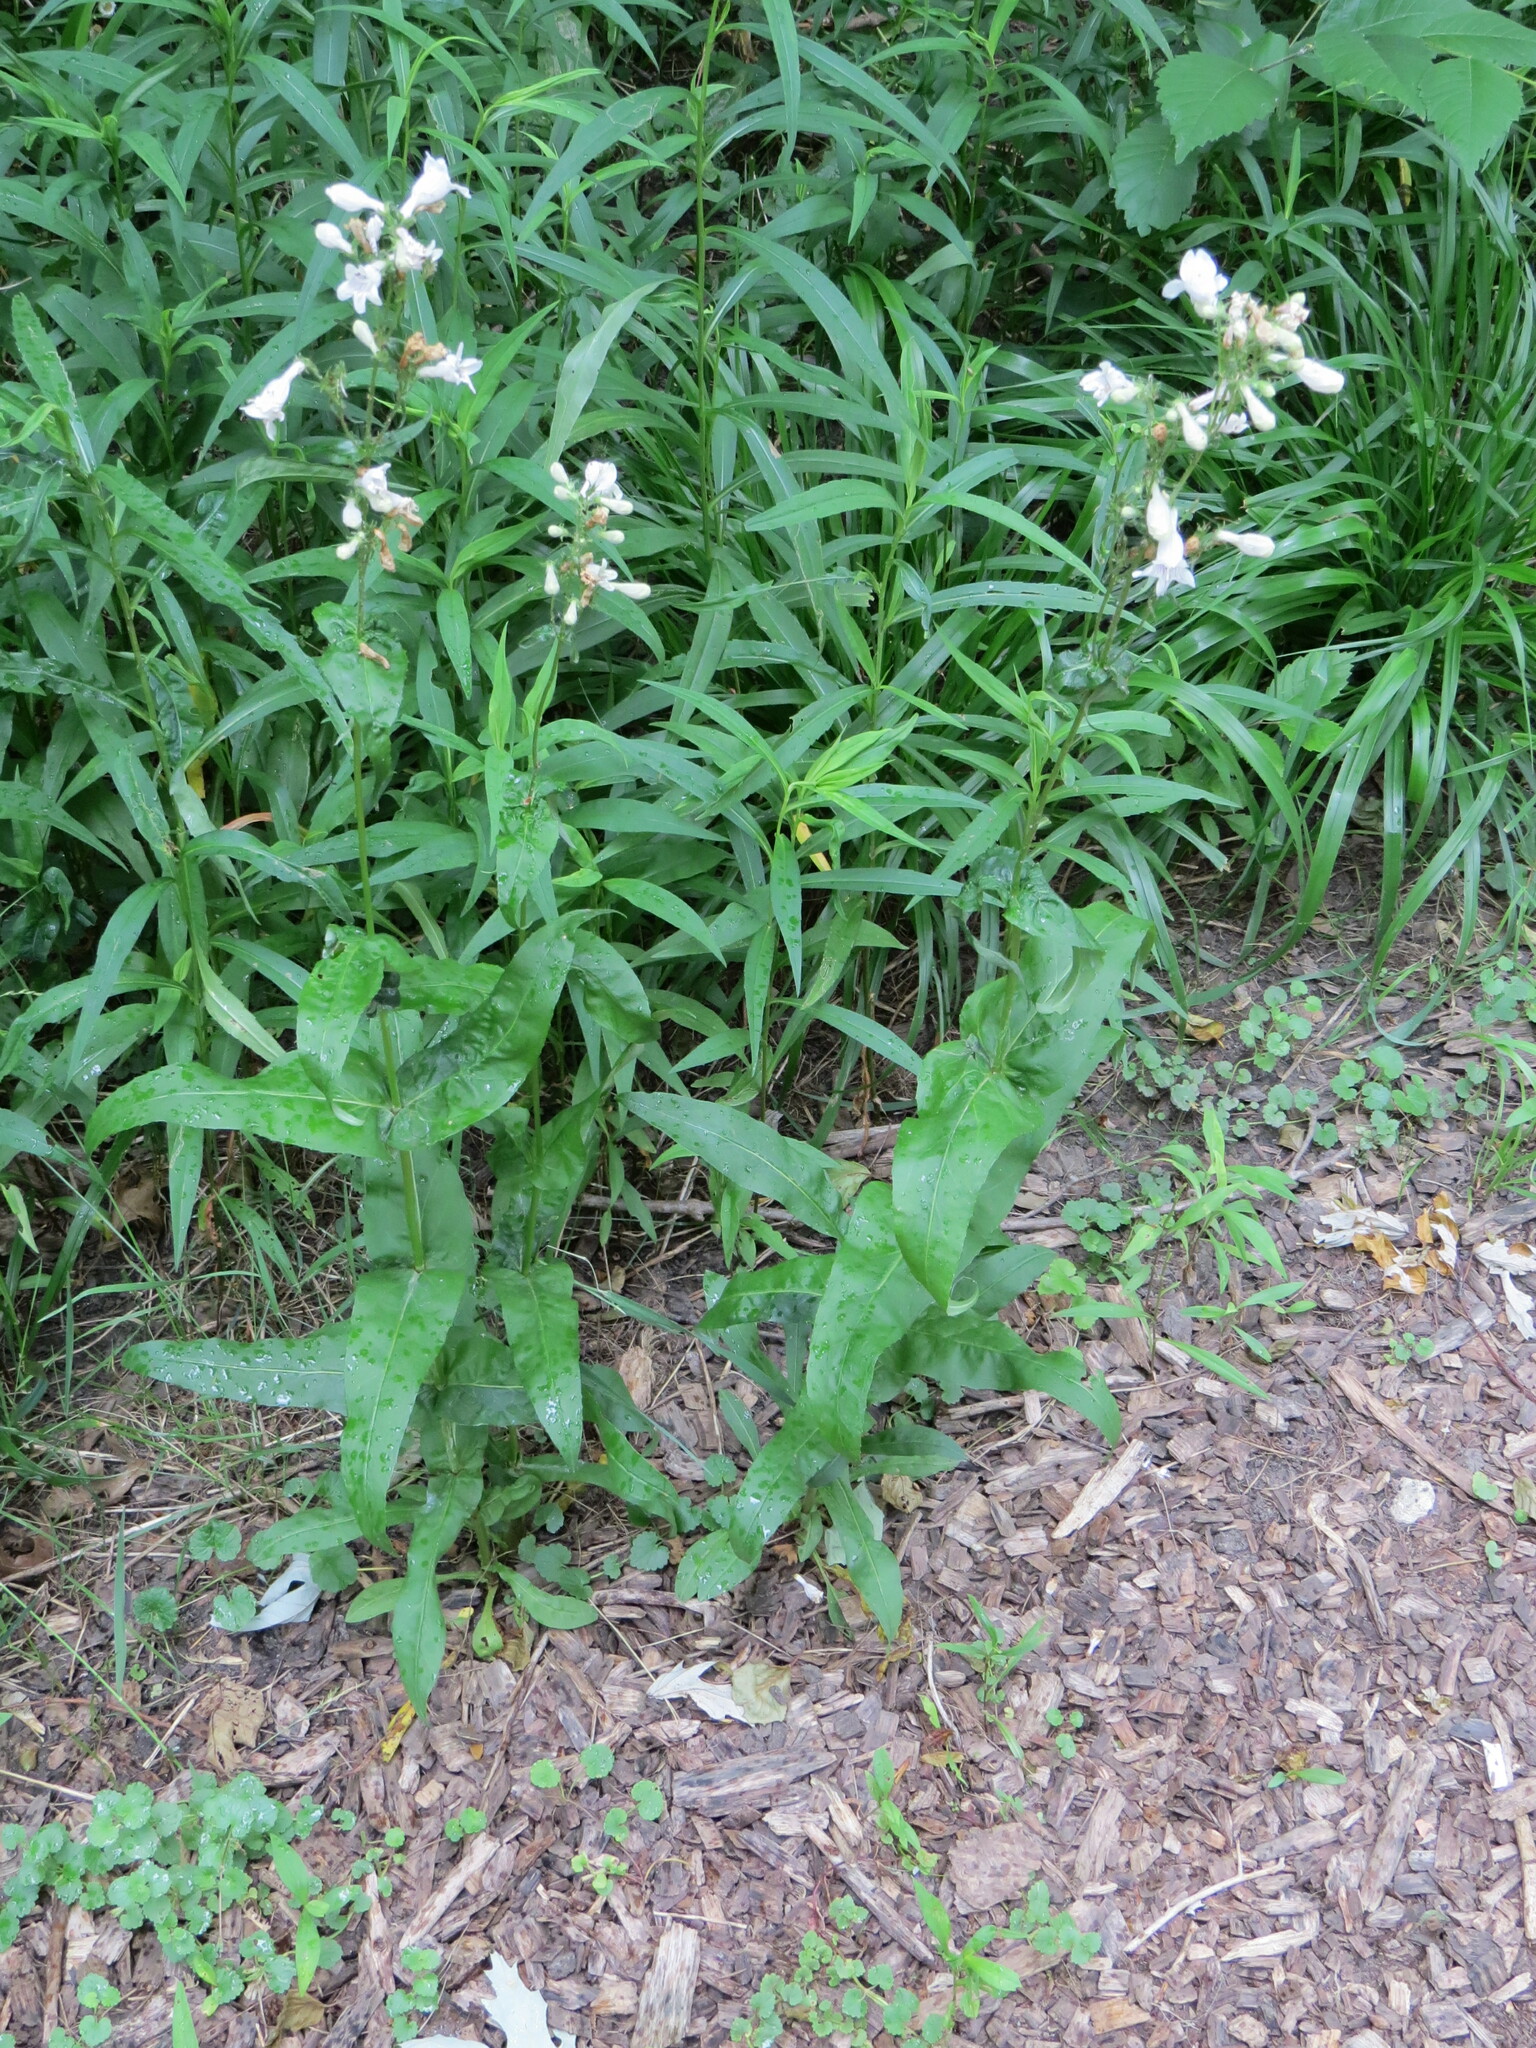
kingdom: Plantae
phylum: Tracheophyta
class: Magnoliopsida
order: Lamiales
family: Plantaginaceae
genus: Penstemon
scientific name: Penstemon digitalis
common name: Foxglove beardtongue
